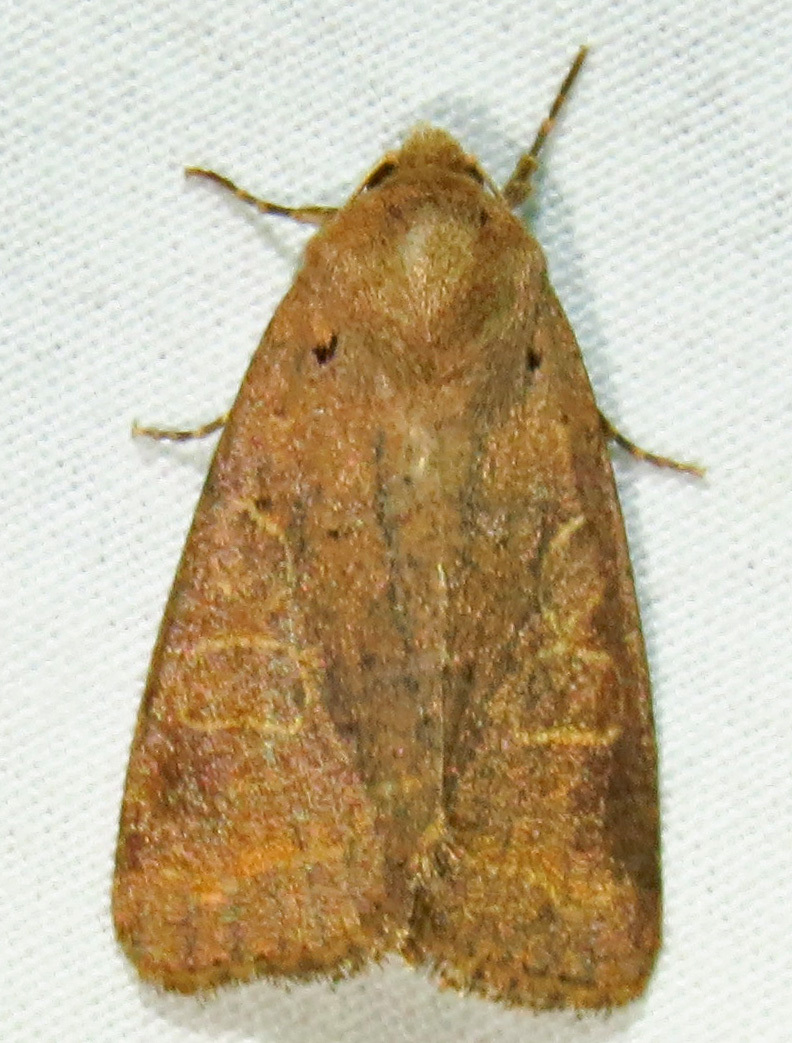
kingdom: Animalia
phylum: Arthropoda
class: Insecta
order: Lepidoptera
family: Noctuidae
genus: Kocakina
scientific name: Kocakina fidelis
